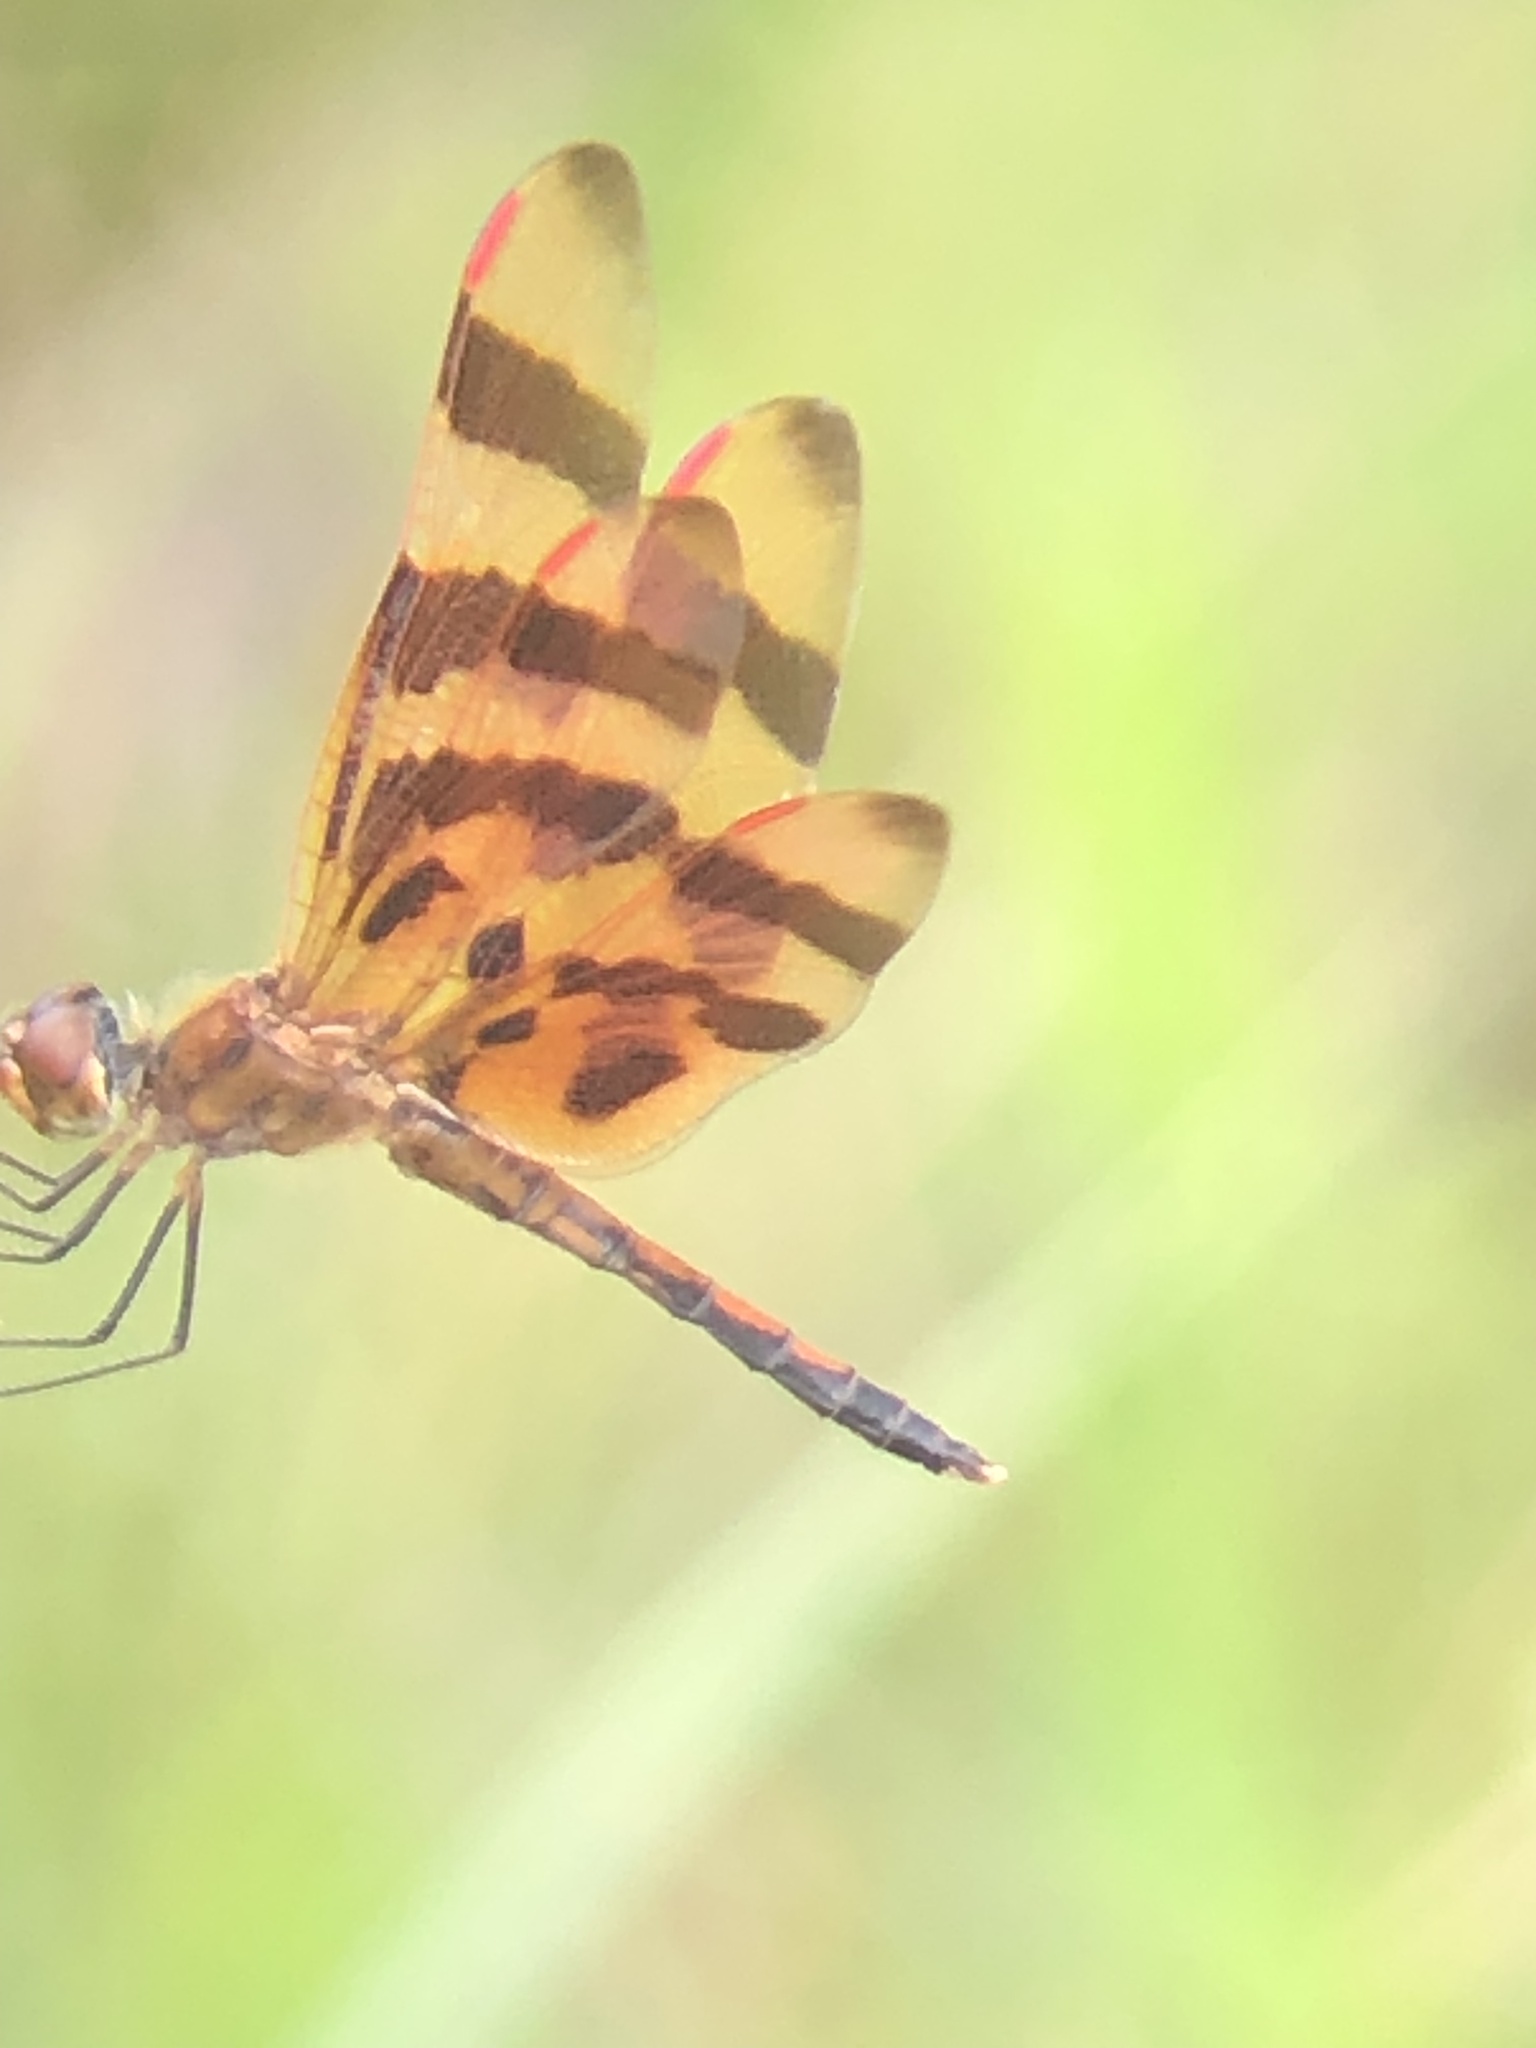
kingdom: Animalia
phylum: Arthropoda
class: Insecta
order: Odonata
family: Libellulidae
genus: Celithemis
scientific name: Celithemis eponina
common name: Halloween pennant
